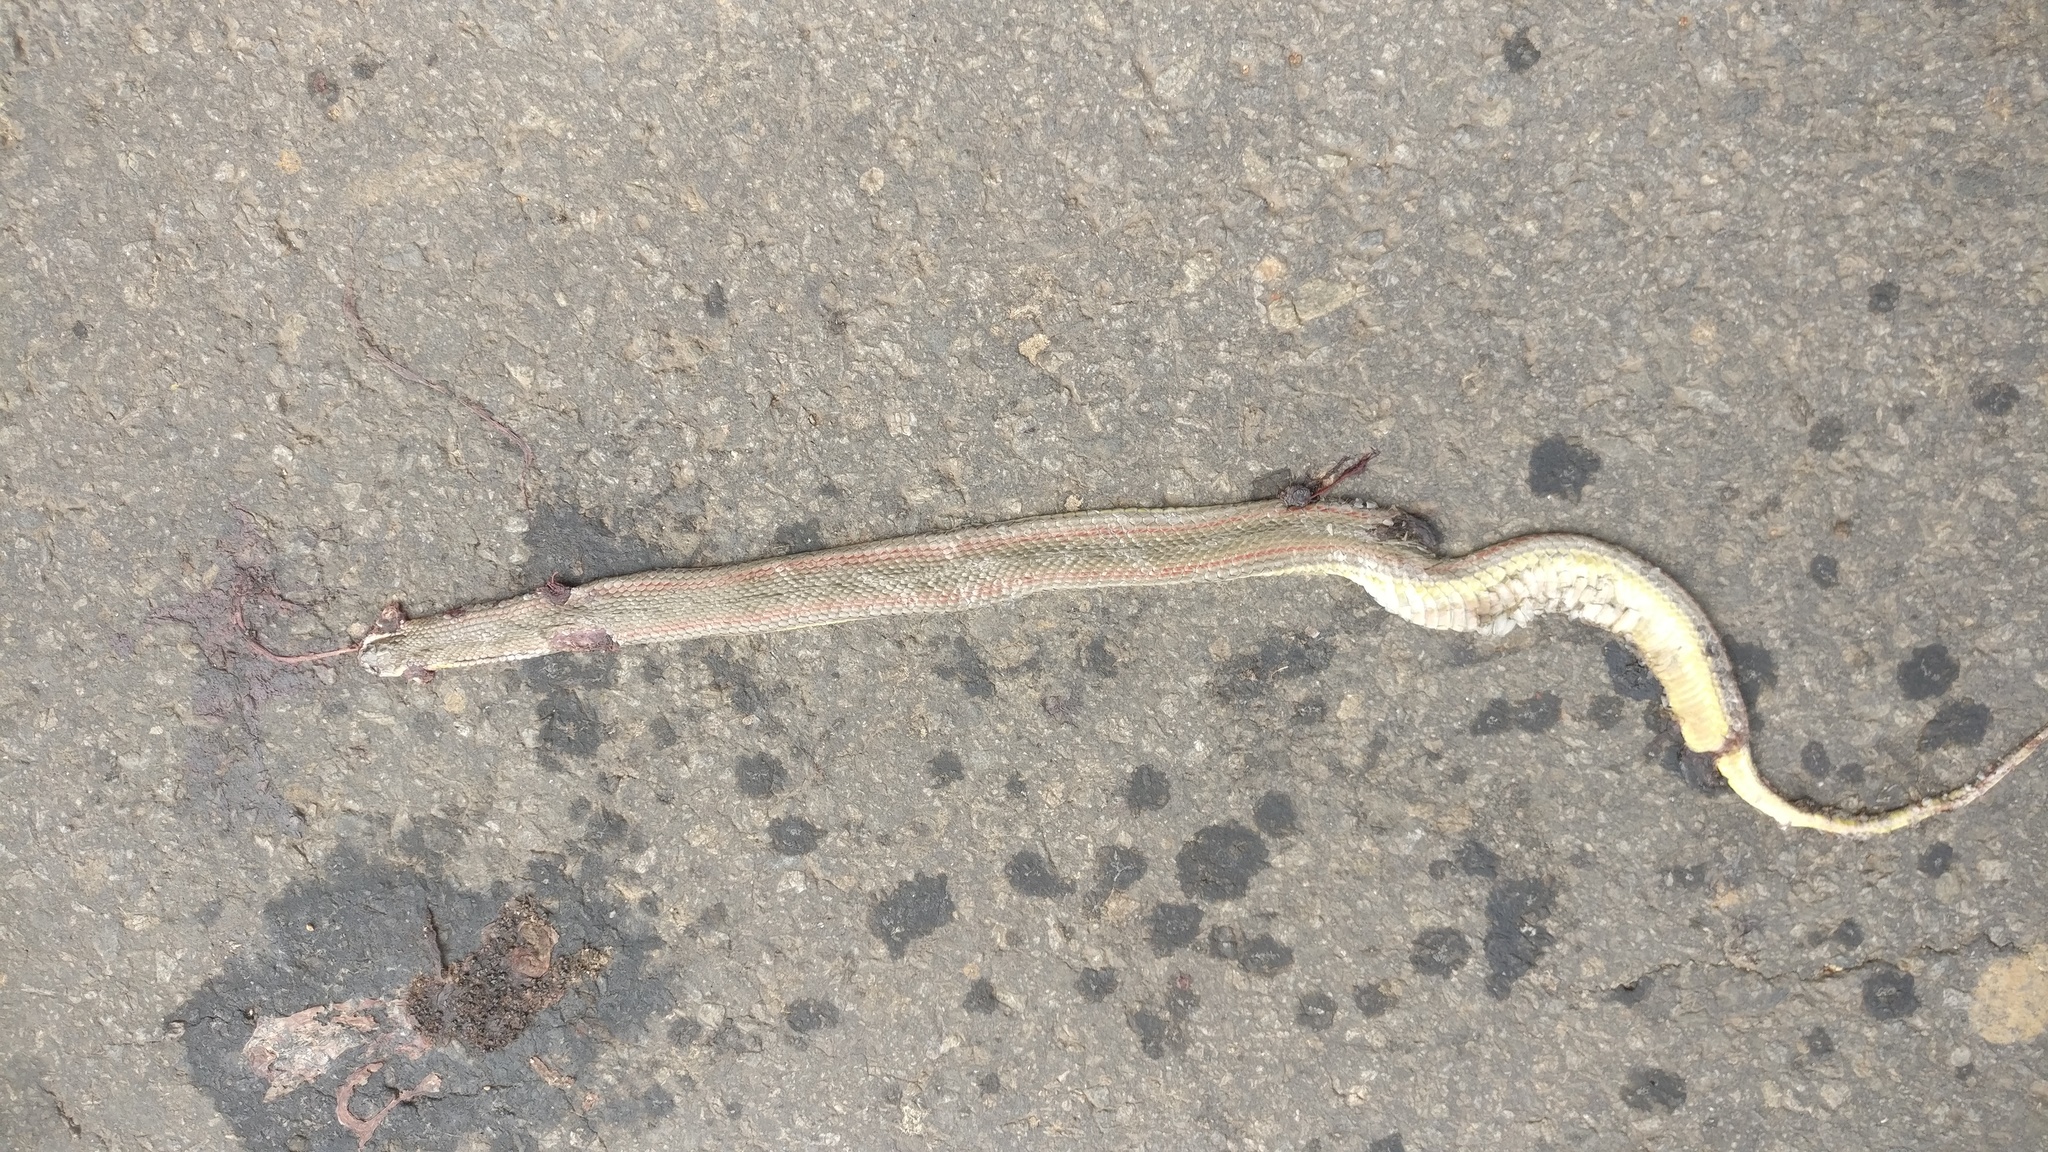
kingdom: Animalia
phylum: Chordata
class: Squamata
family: Colubridae
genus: Atretium
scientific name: Atretium schistosum
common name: Olive keelback wart snake
